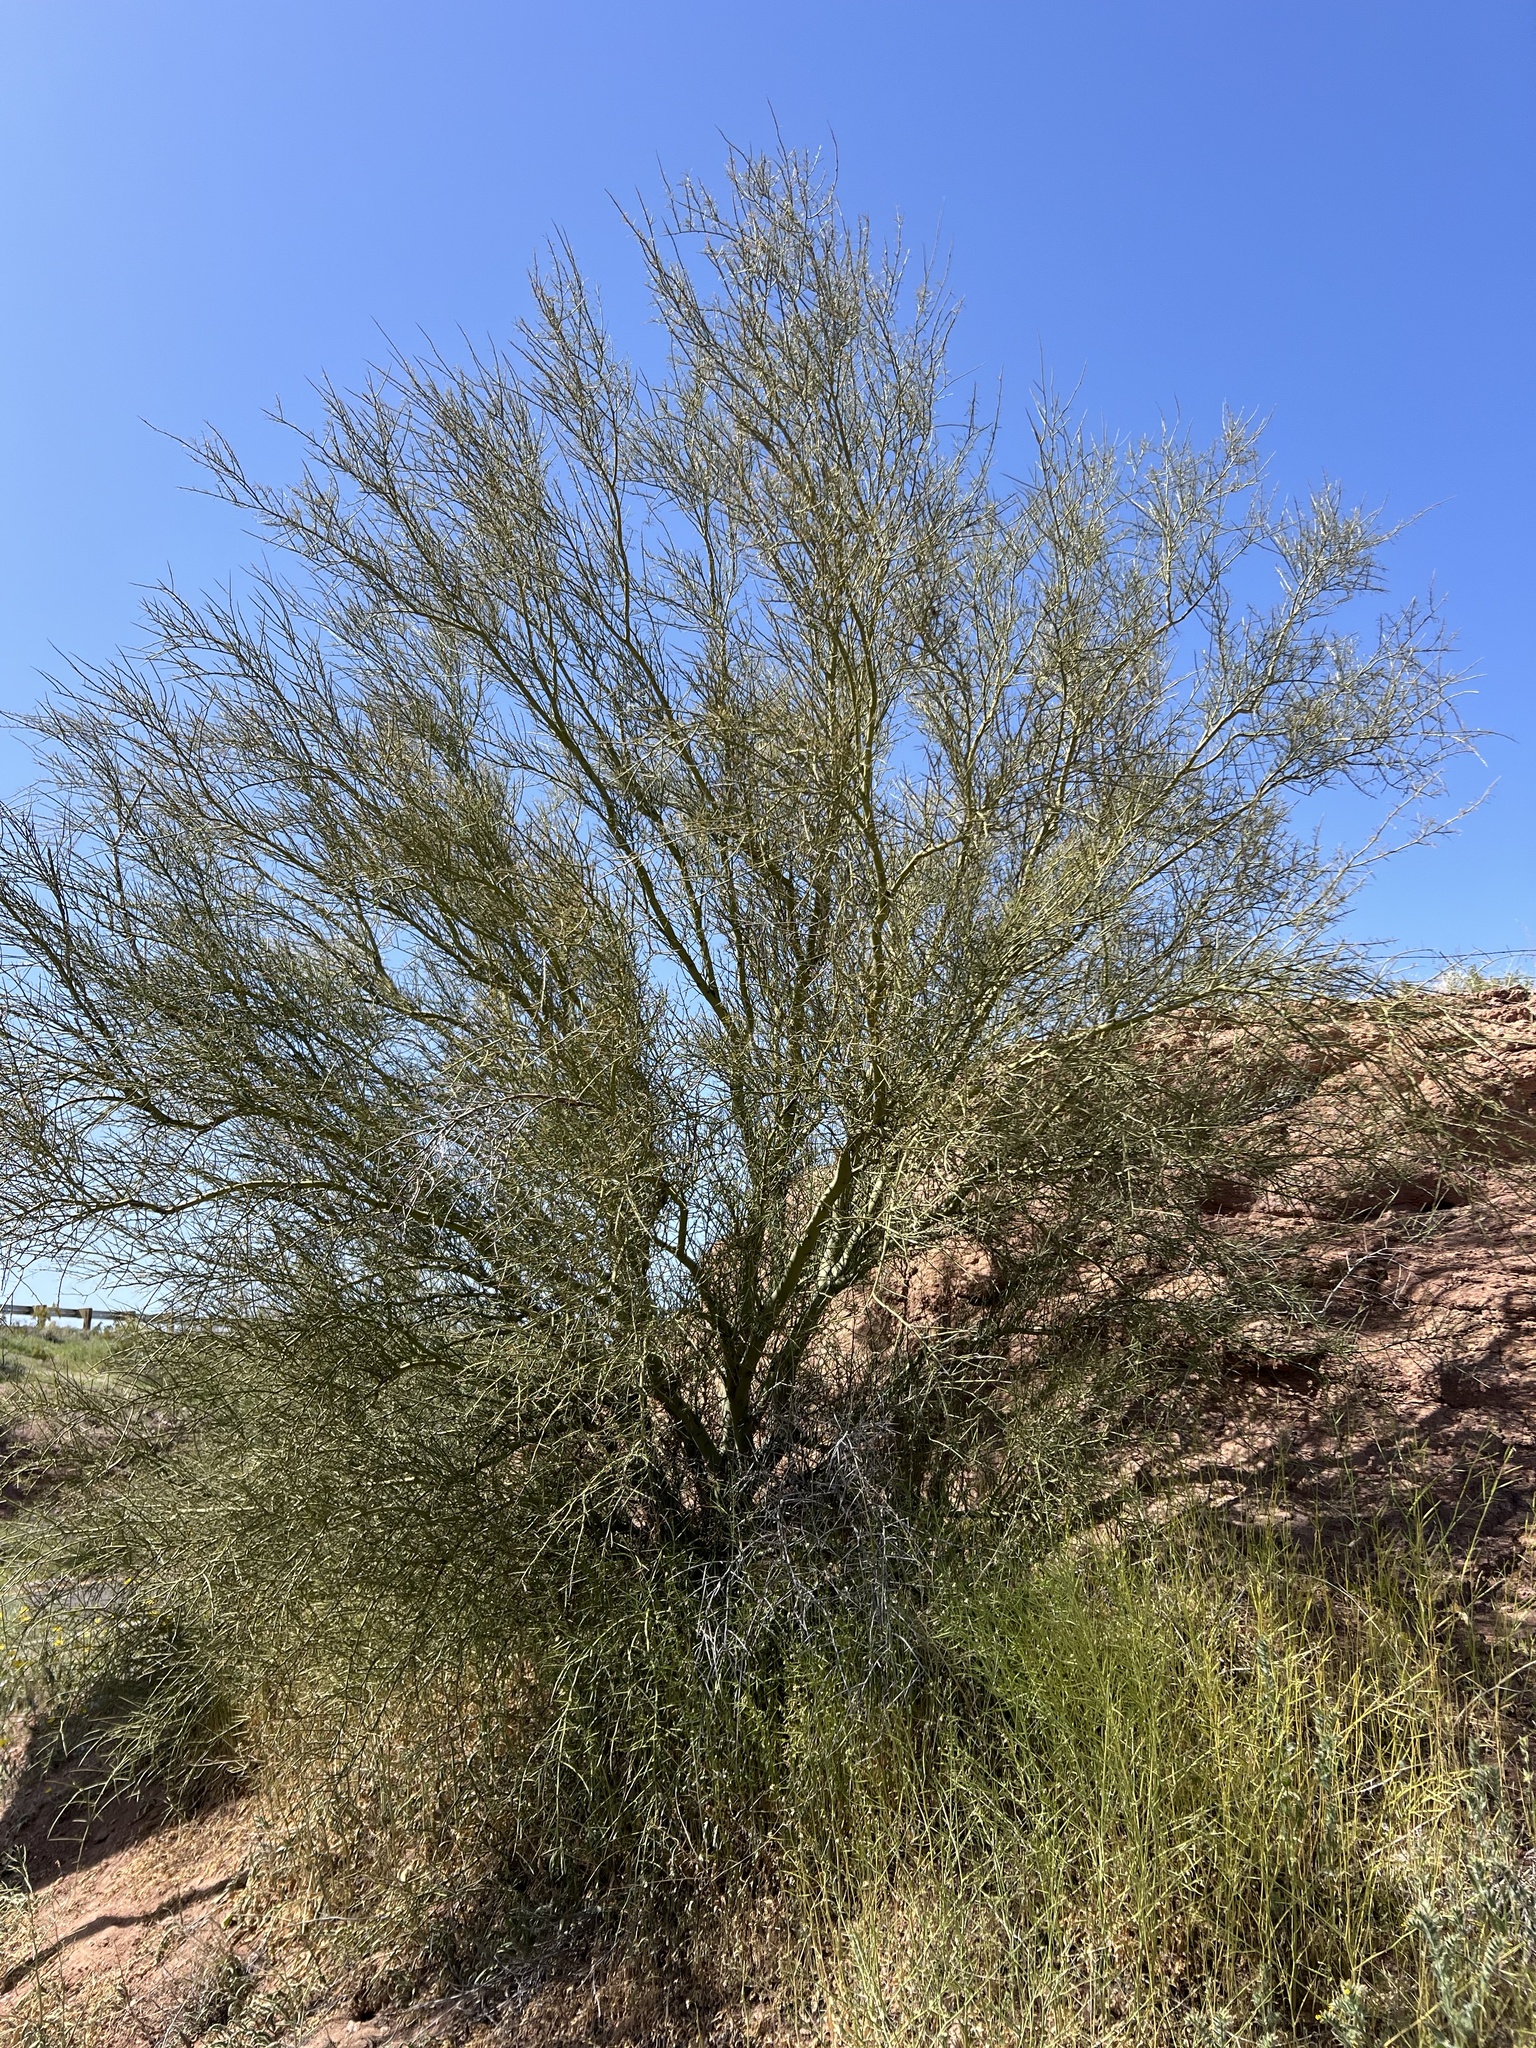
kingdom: Plantae
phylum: Tracheophyta
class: Magnoliopsida
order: Fabales
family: Fabaceae
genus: Parkinsonia
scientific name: Parkinsonia microphylla
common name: Yellow paloverde
